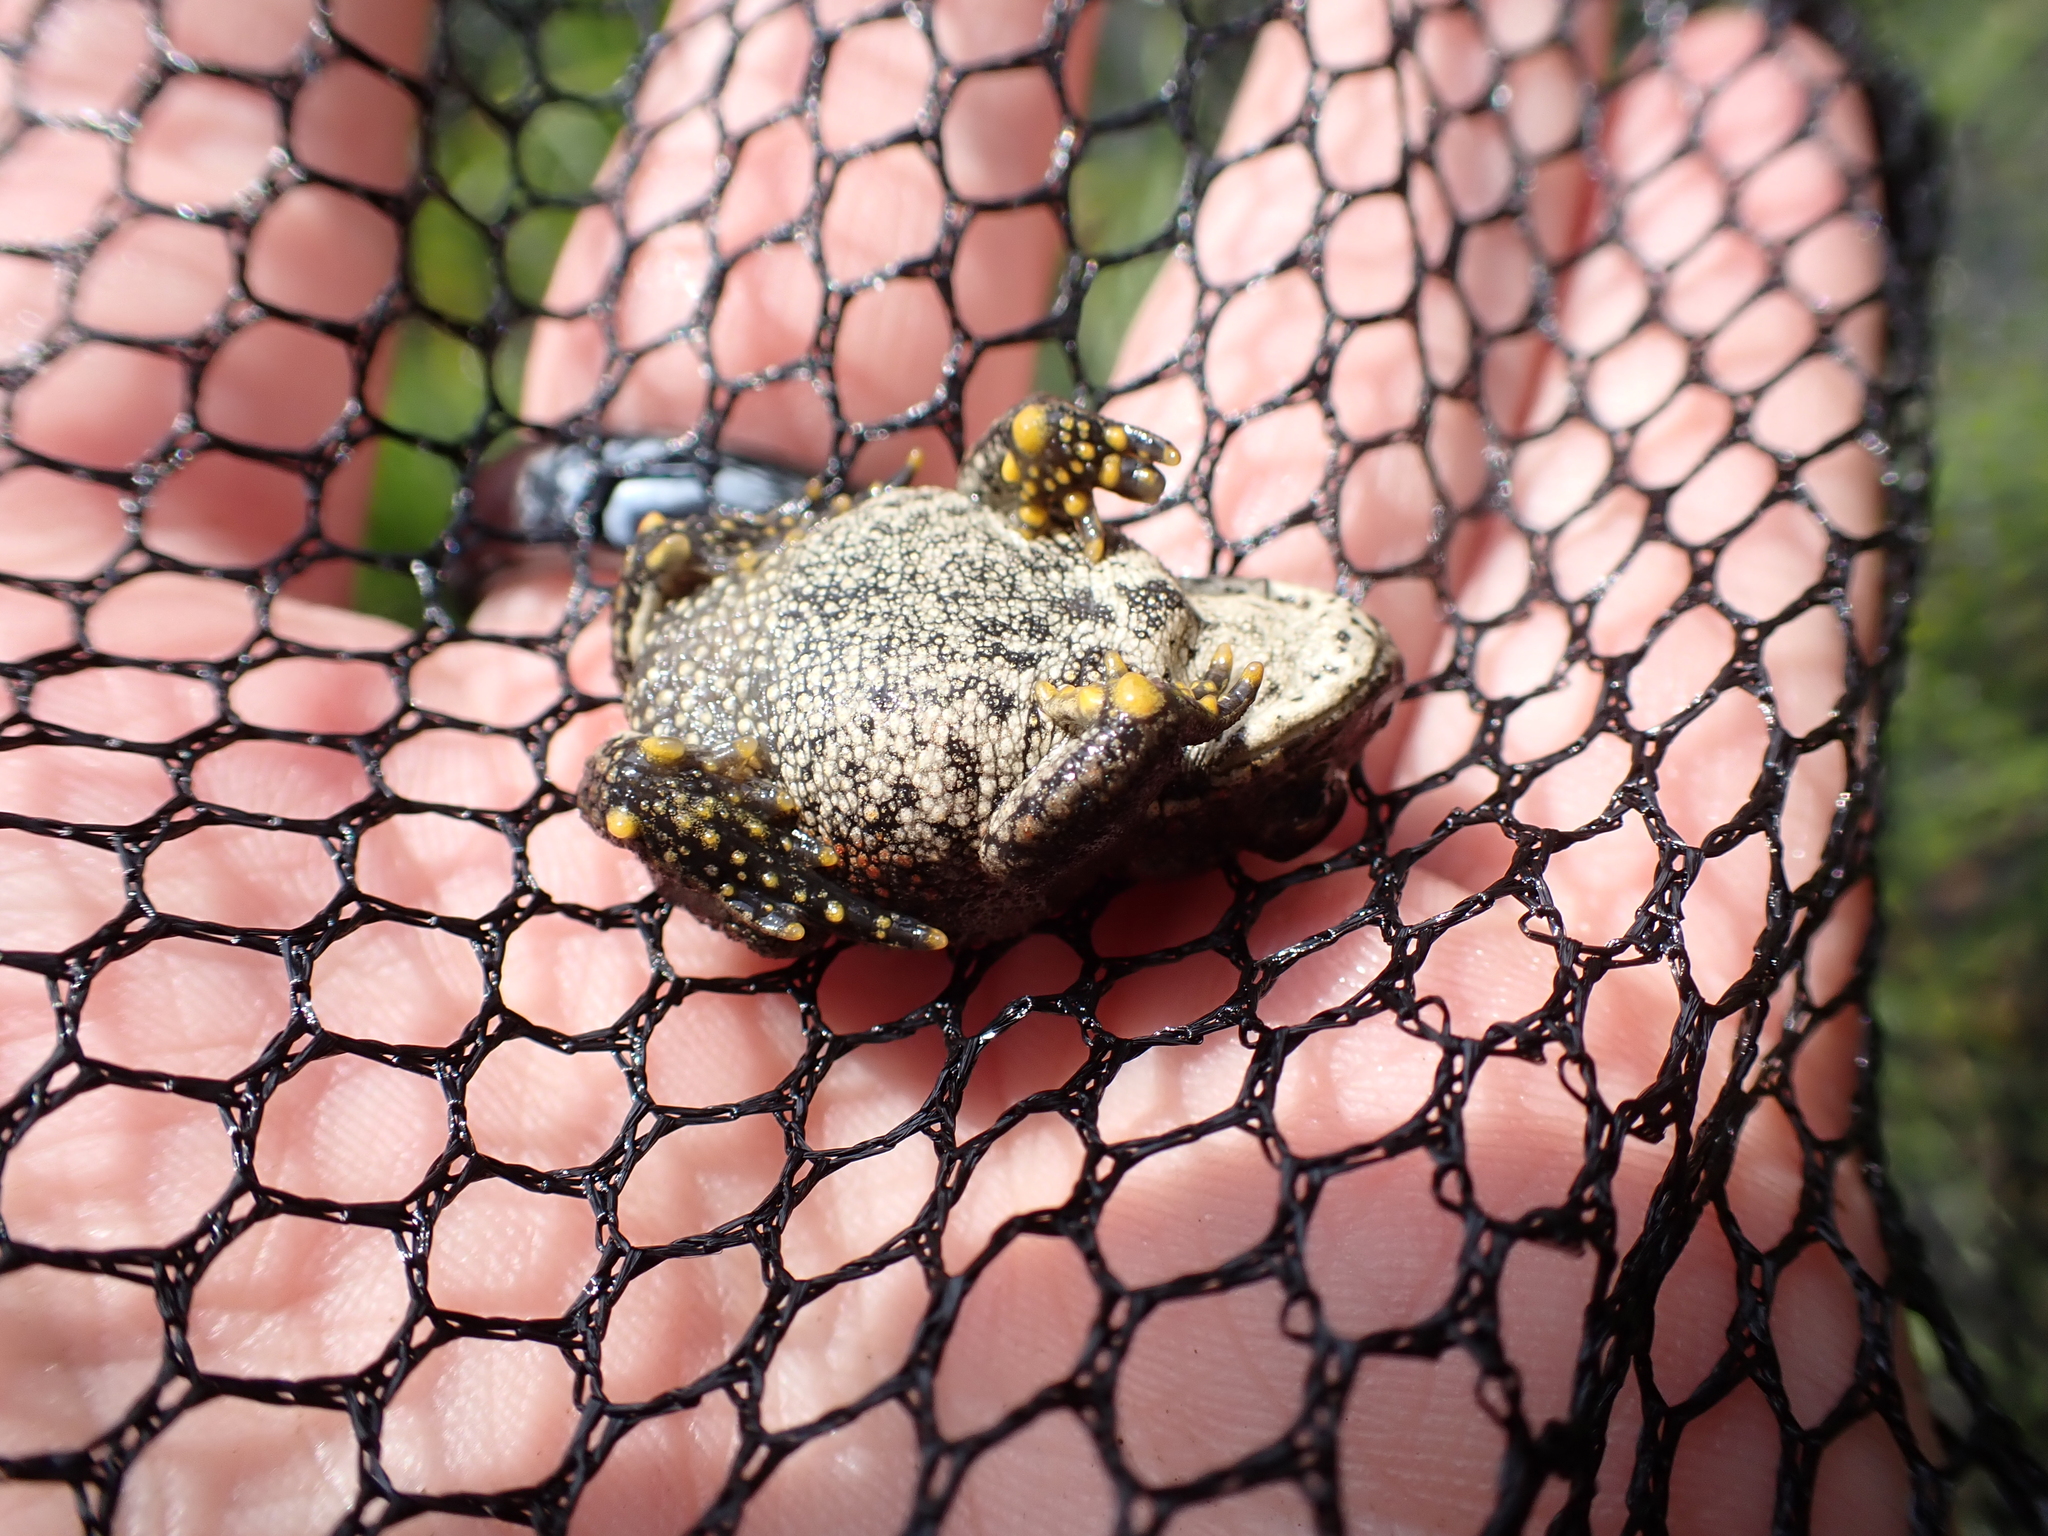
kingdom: Animalia
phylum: Chordata
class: Amphibia
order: Anura
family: Bufonidae
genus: Anaxyrus
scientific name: Anaxyrus boreas
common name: Western toad
